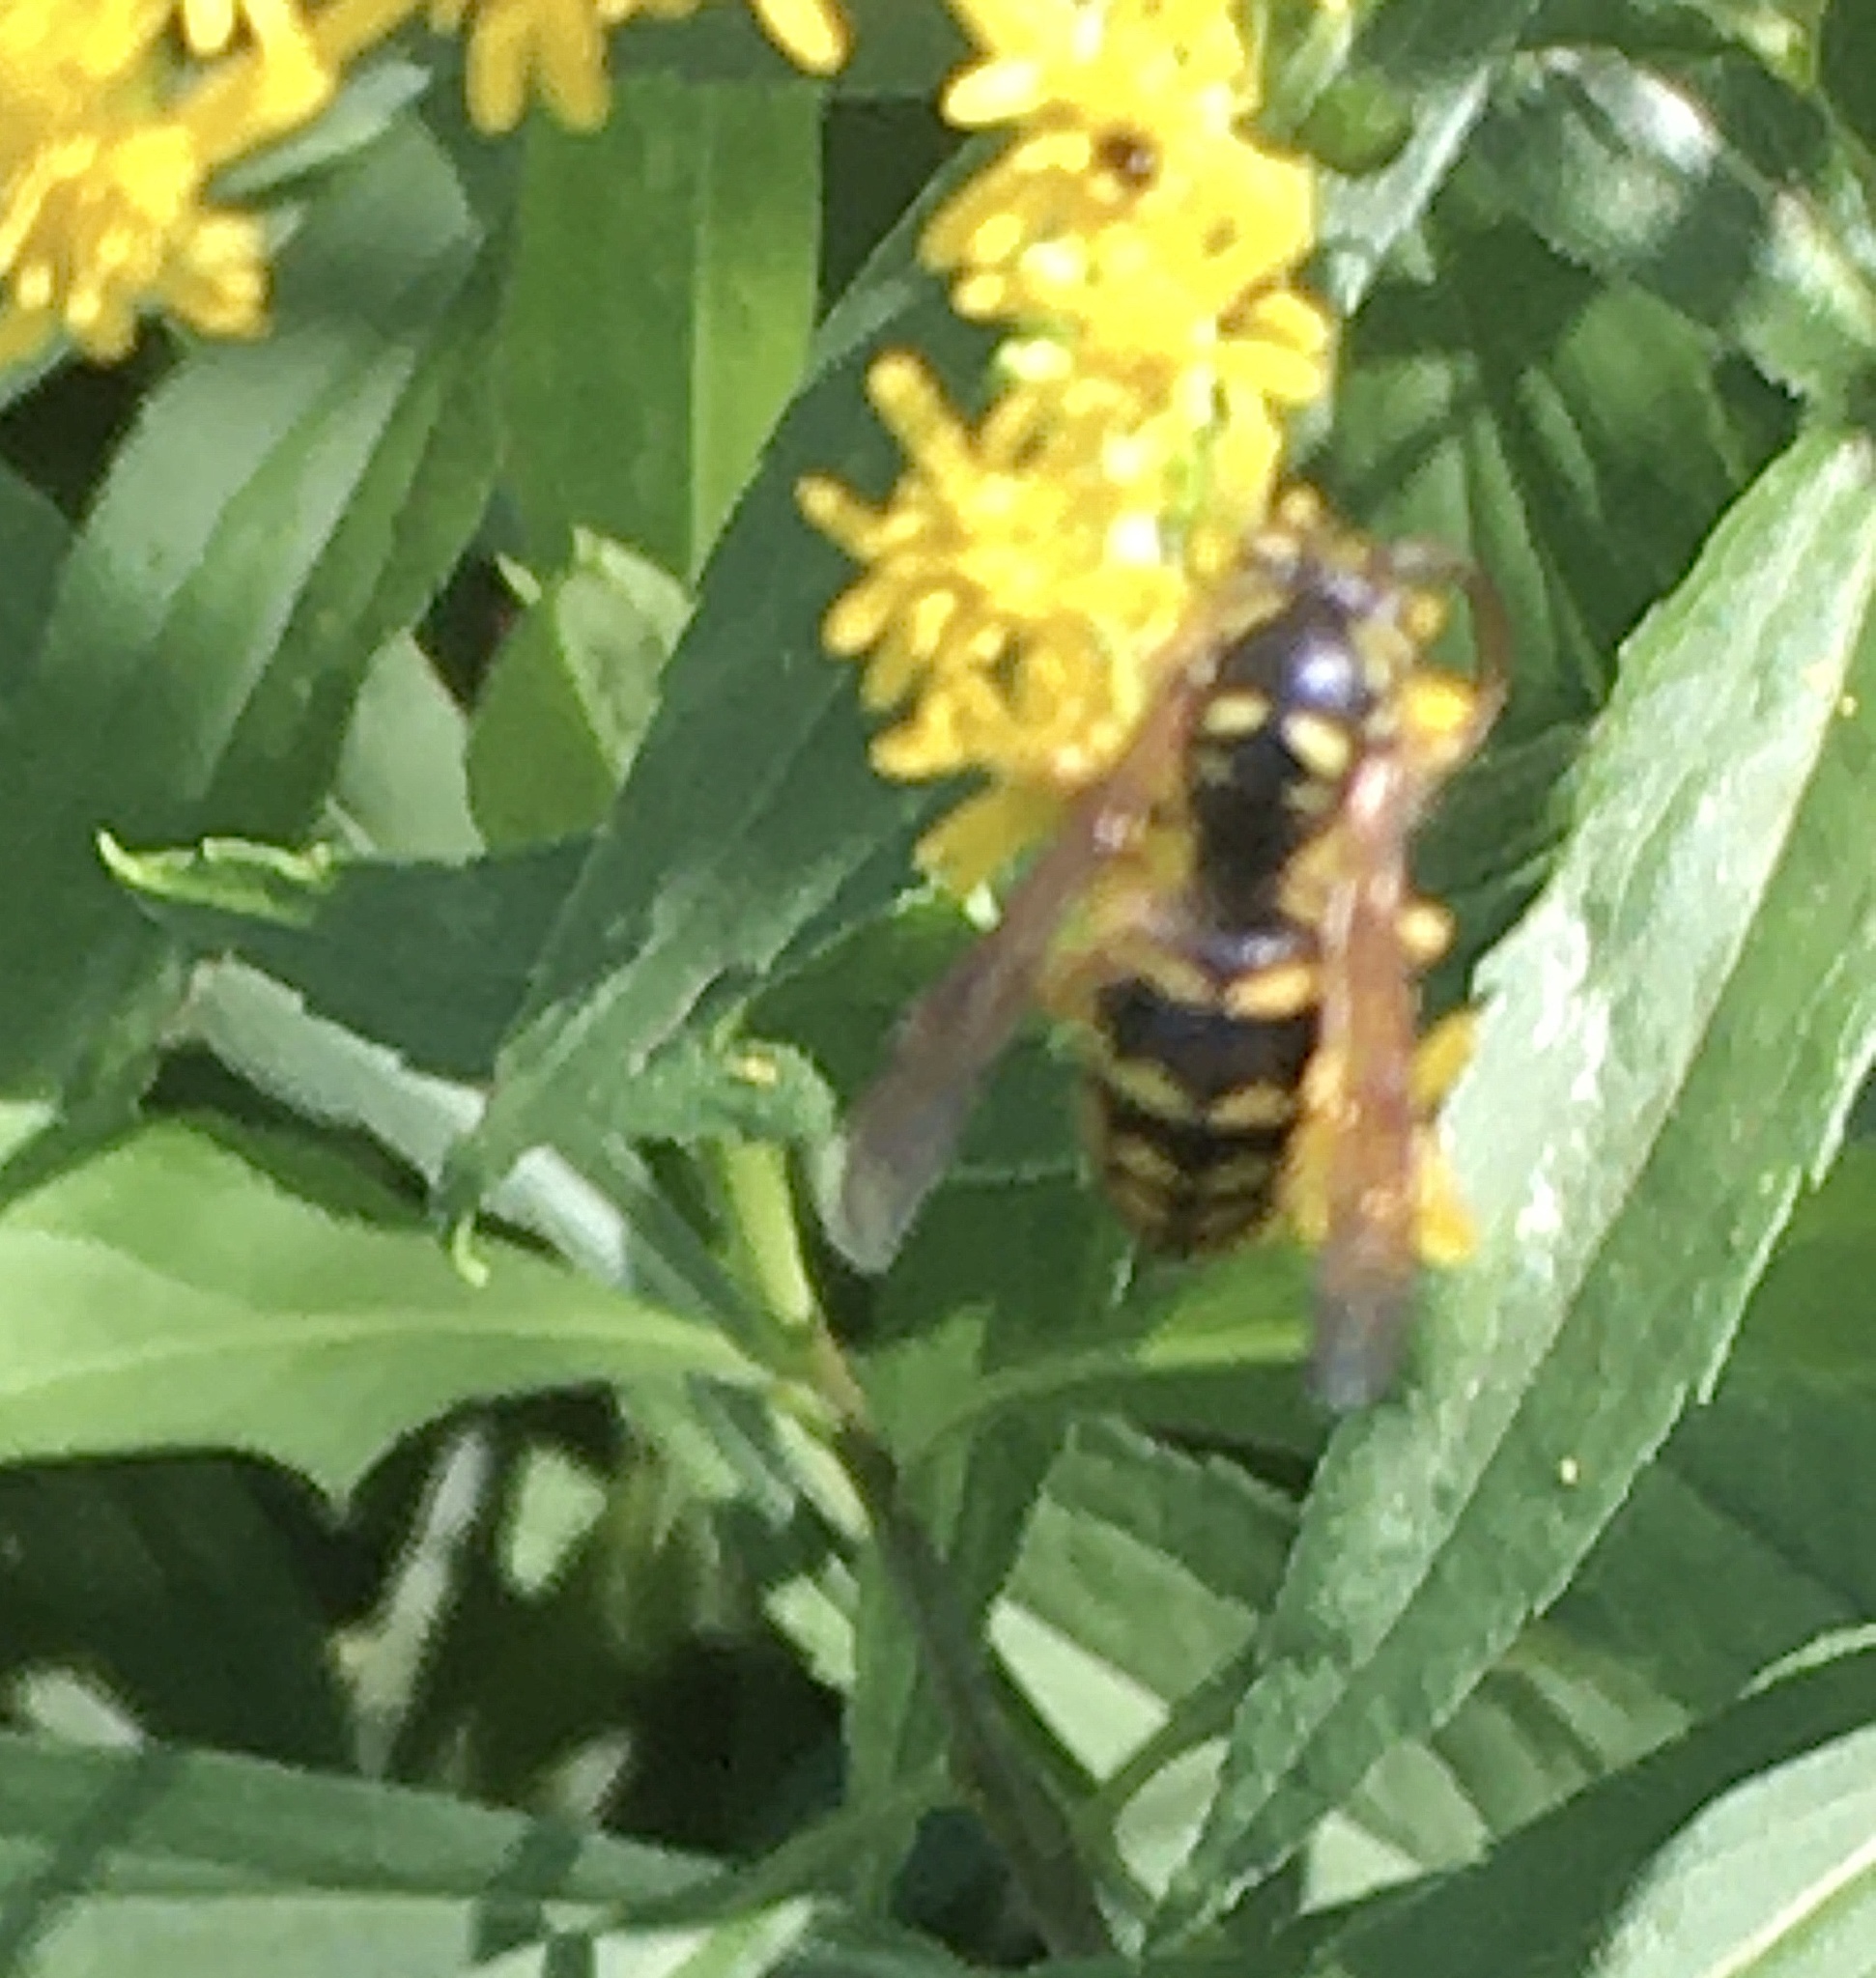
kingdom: Animalia
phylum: Arthropoda
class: Insecta
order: Hymenoptera
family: Vespidae
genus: Dolichovespula
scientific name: Dolichovespula arenaria
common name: Aerial yellowjacket
